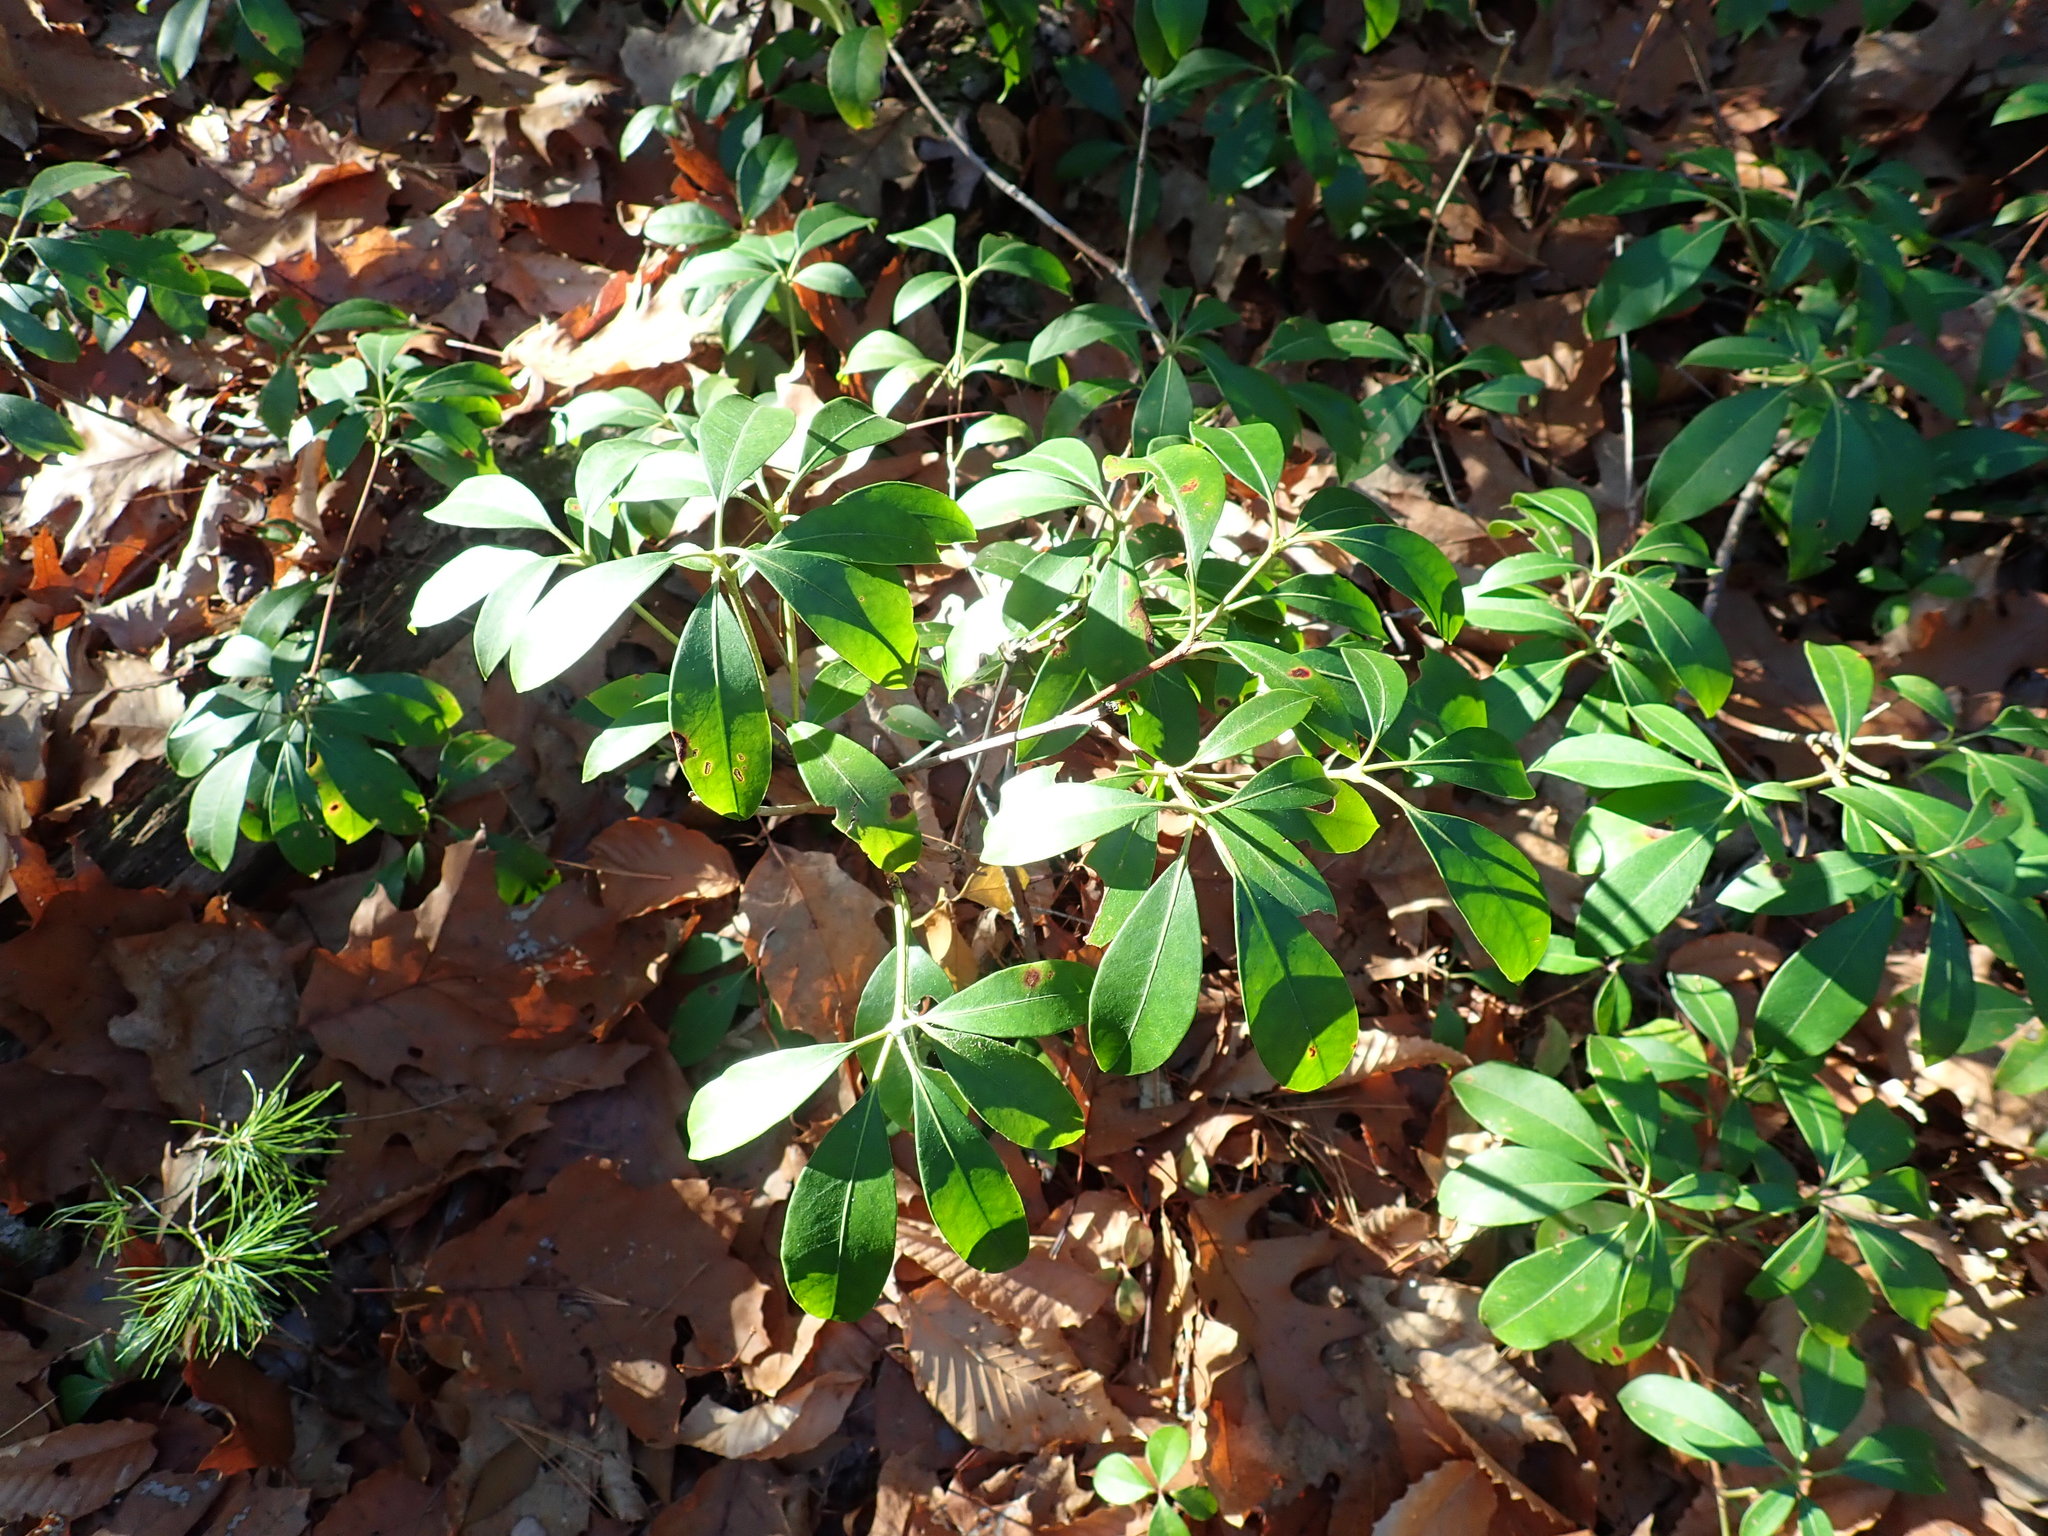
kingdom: Plantae
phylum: Tracheophyta
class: Magnoliopsida
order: Ericales
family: Ericaceae
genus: Kalmia
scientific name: Kalmia latifolia
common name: Mountain-laurel
